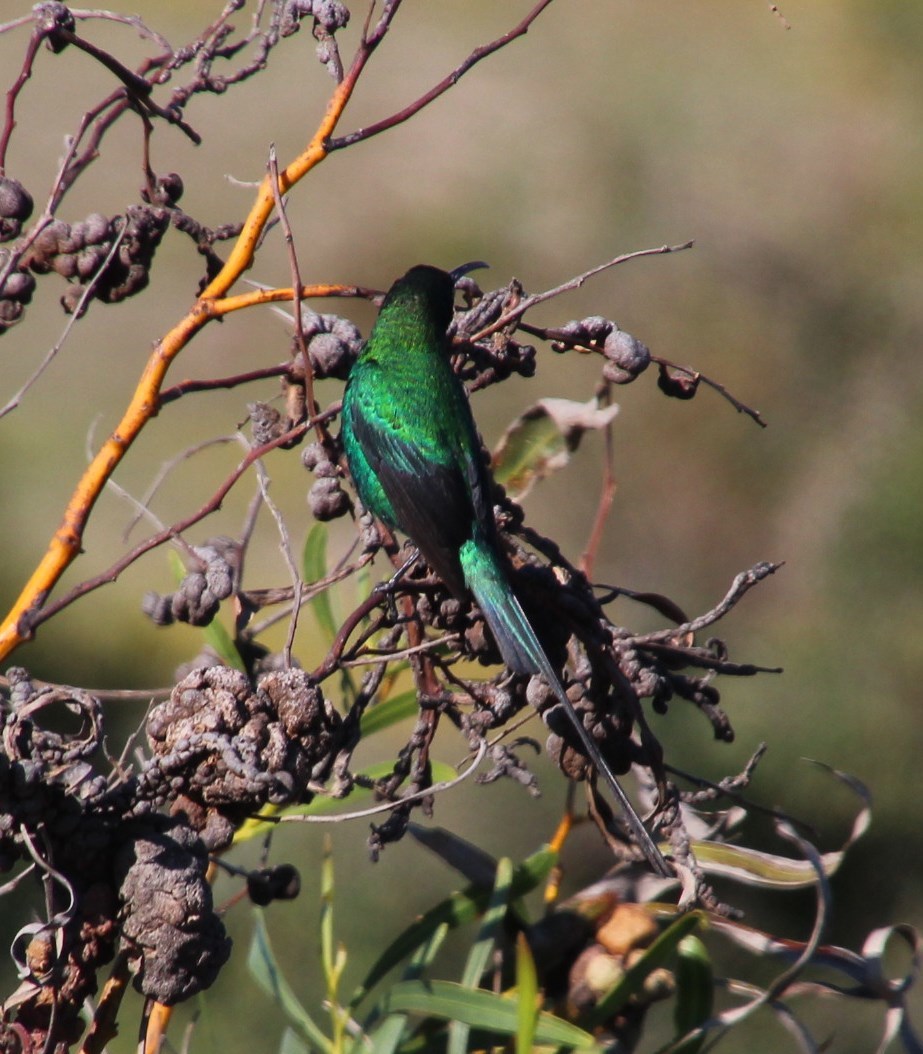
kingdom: Animalia
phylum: Chordata
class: Aves
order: Passeriformes
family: Nectariniidae
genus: Nectarinia
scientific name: Nectarinia famosa
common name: Malachite sunbird
